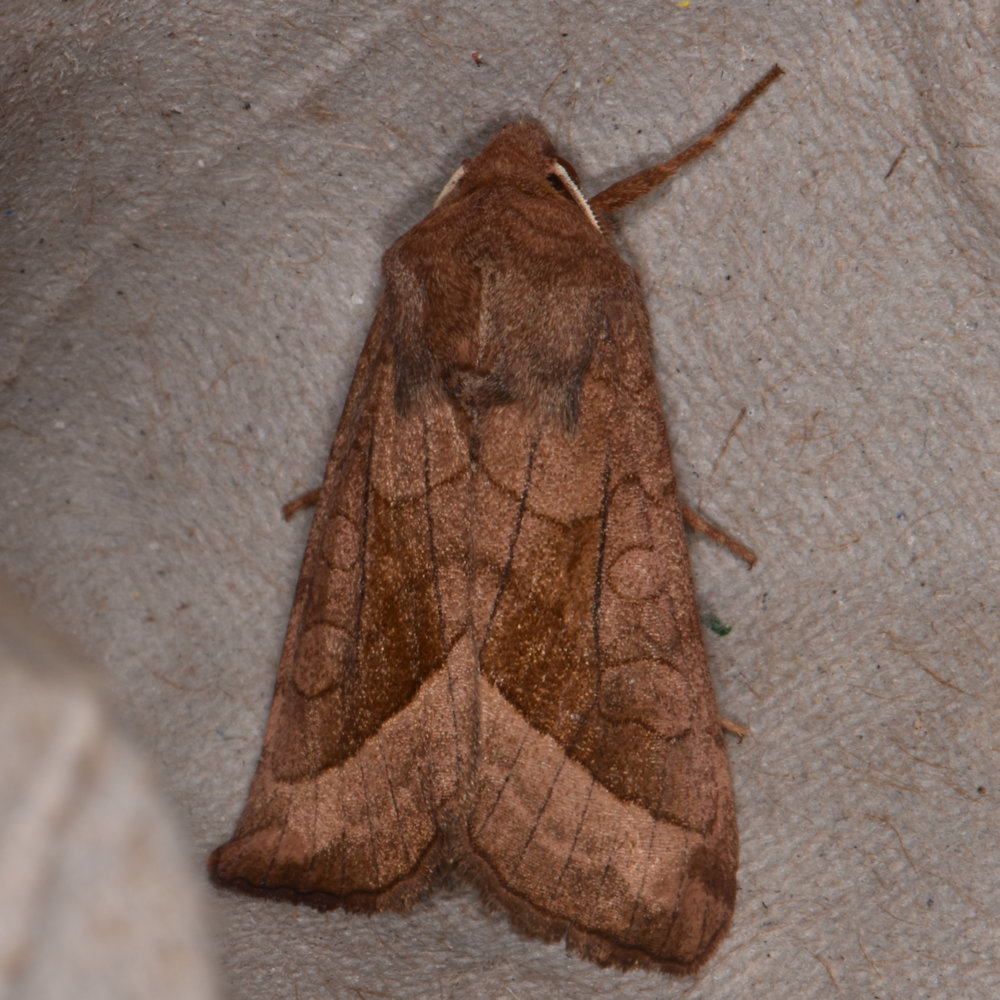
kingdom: Animalia
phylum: Arthropoda
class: Insecta
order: Lepidoptera
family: Noctuidae
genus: Hydraecia
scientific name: Hydraecia micacea
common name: Rosy rustic
